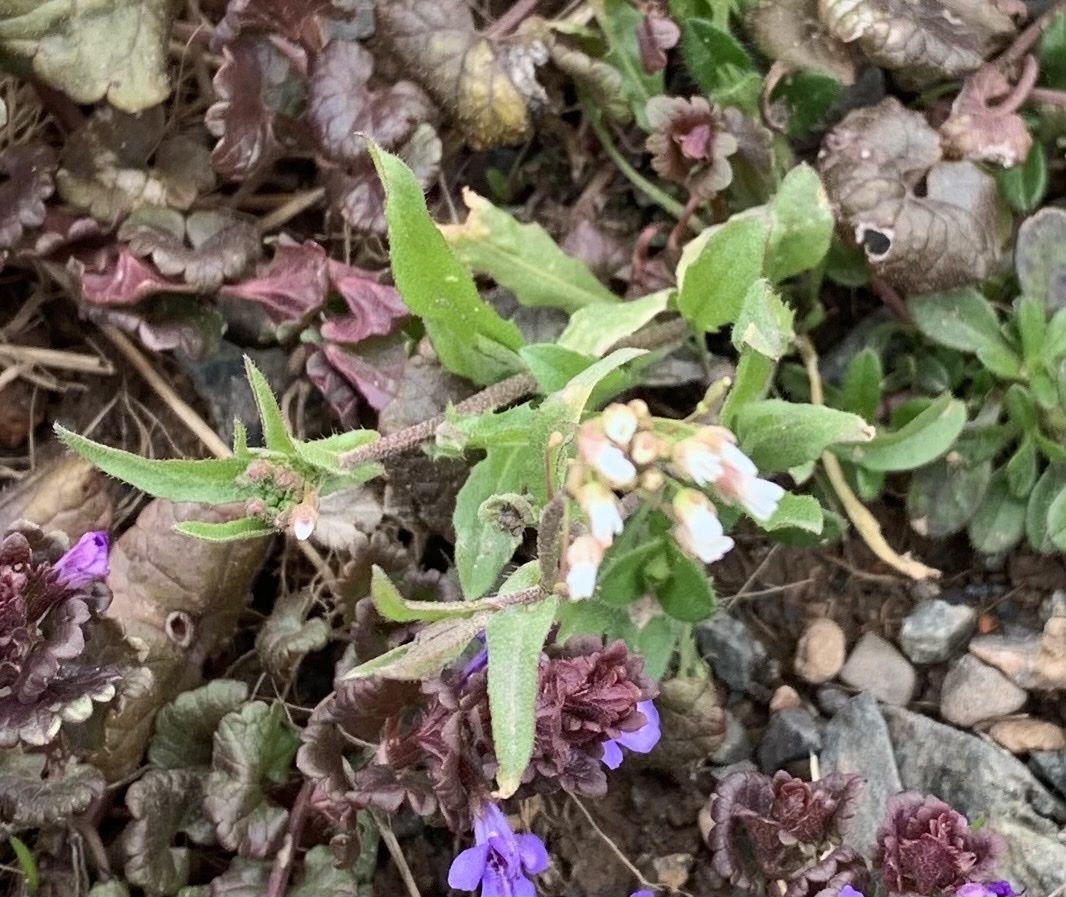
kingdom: Plantae
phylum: Tracheophyta
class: Magnoliopsida
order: Brassicales
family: Brassicaceae
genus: Capsella
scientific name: Capsella bursa-pastoris
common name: Shepherd's purse
